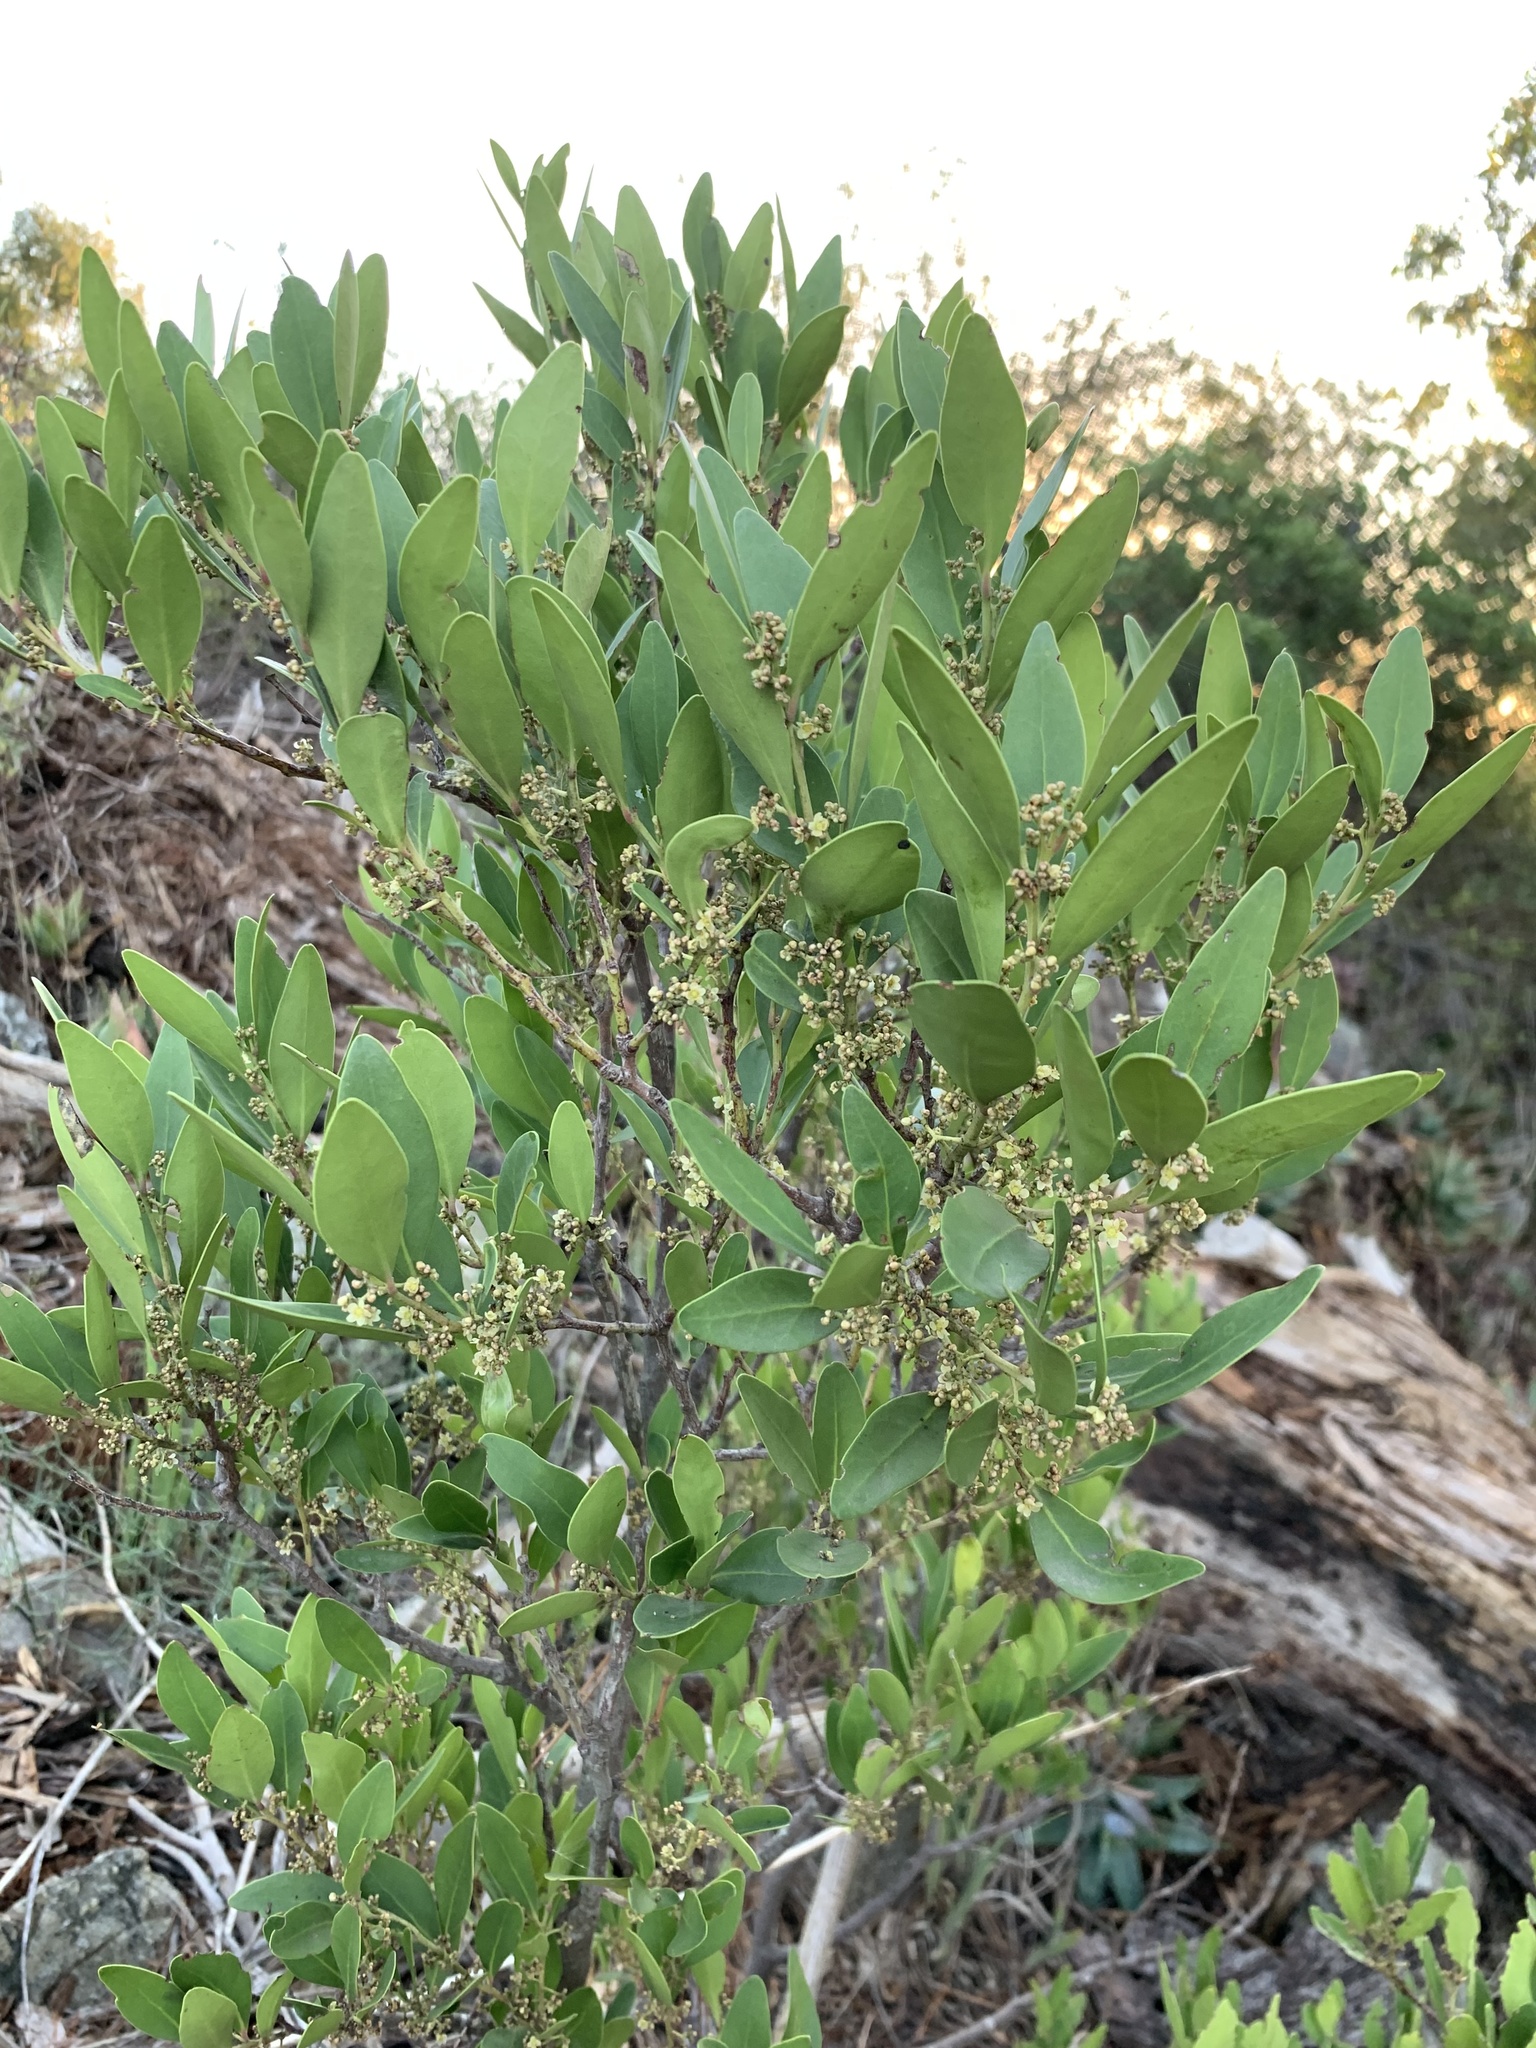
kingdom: Plantae
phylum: Tracheophyta
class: Magnoliopsida
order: Celastrales
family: Celastraceae
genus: Gymnosporia
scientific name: Gymnosporia laurina
